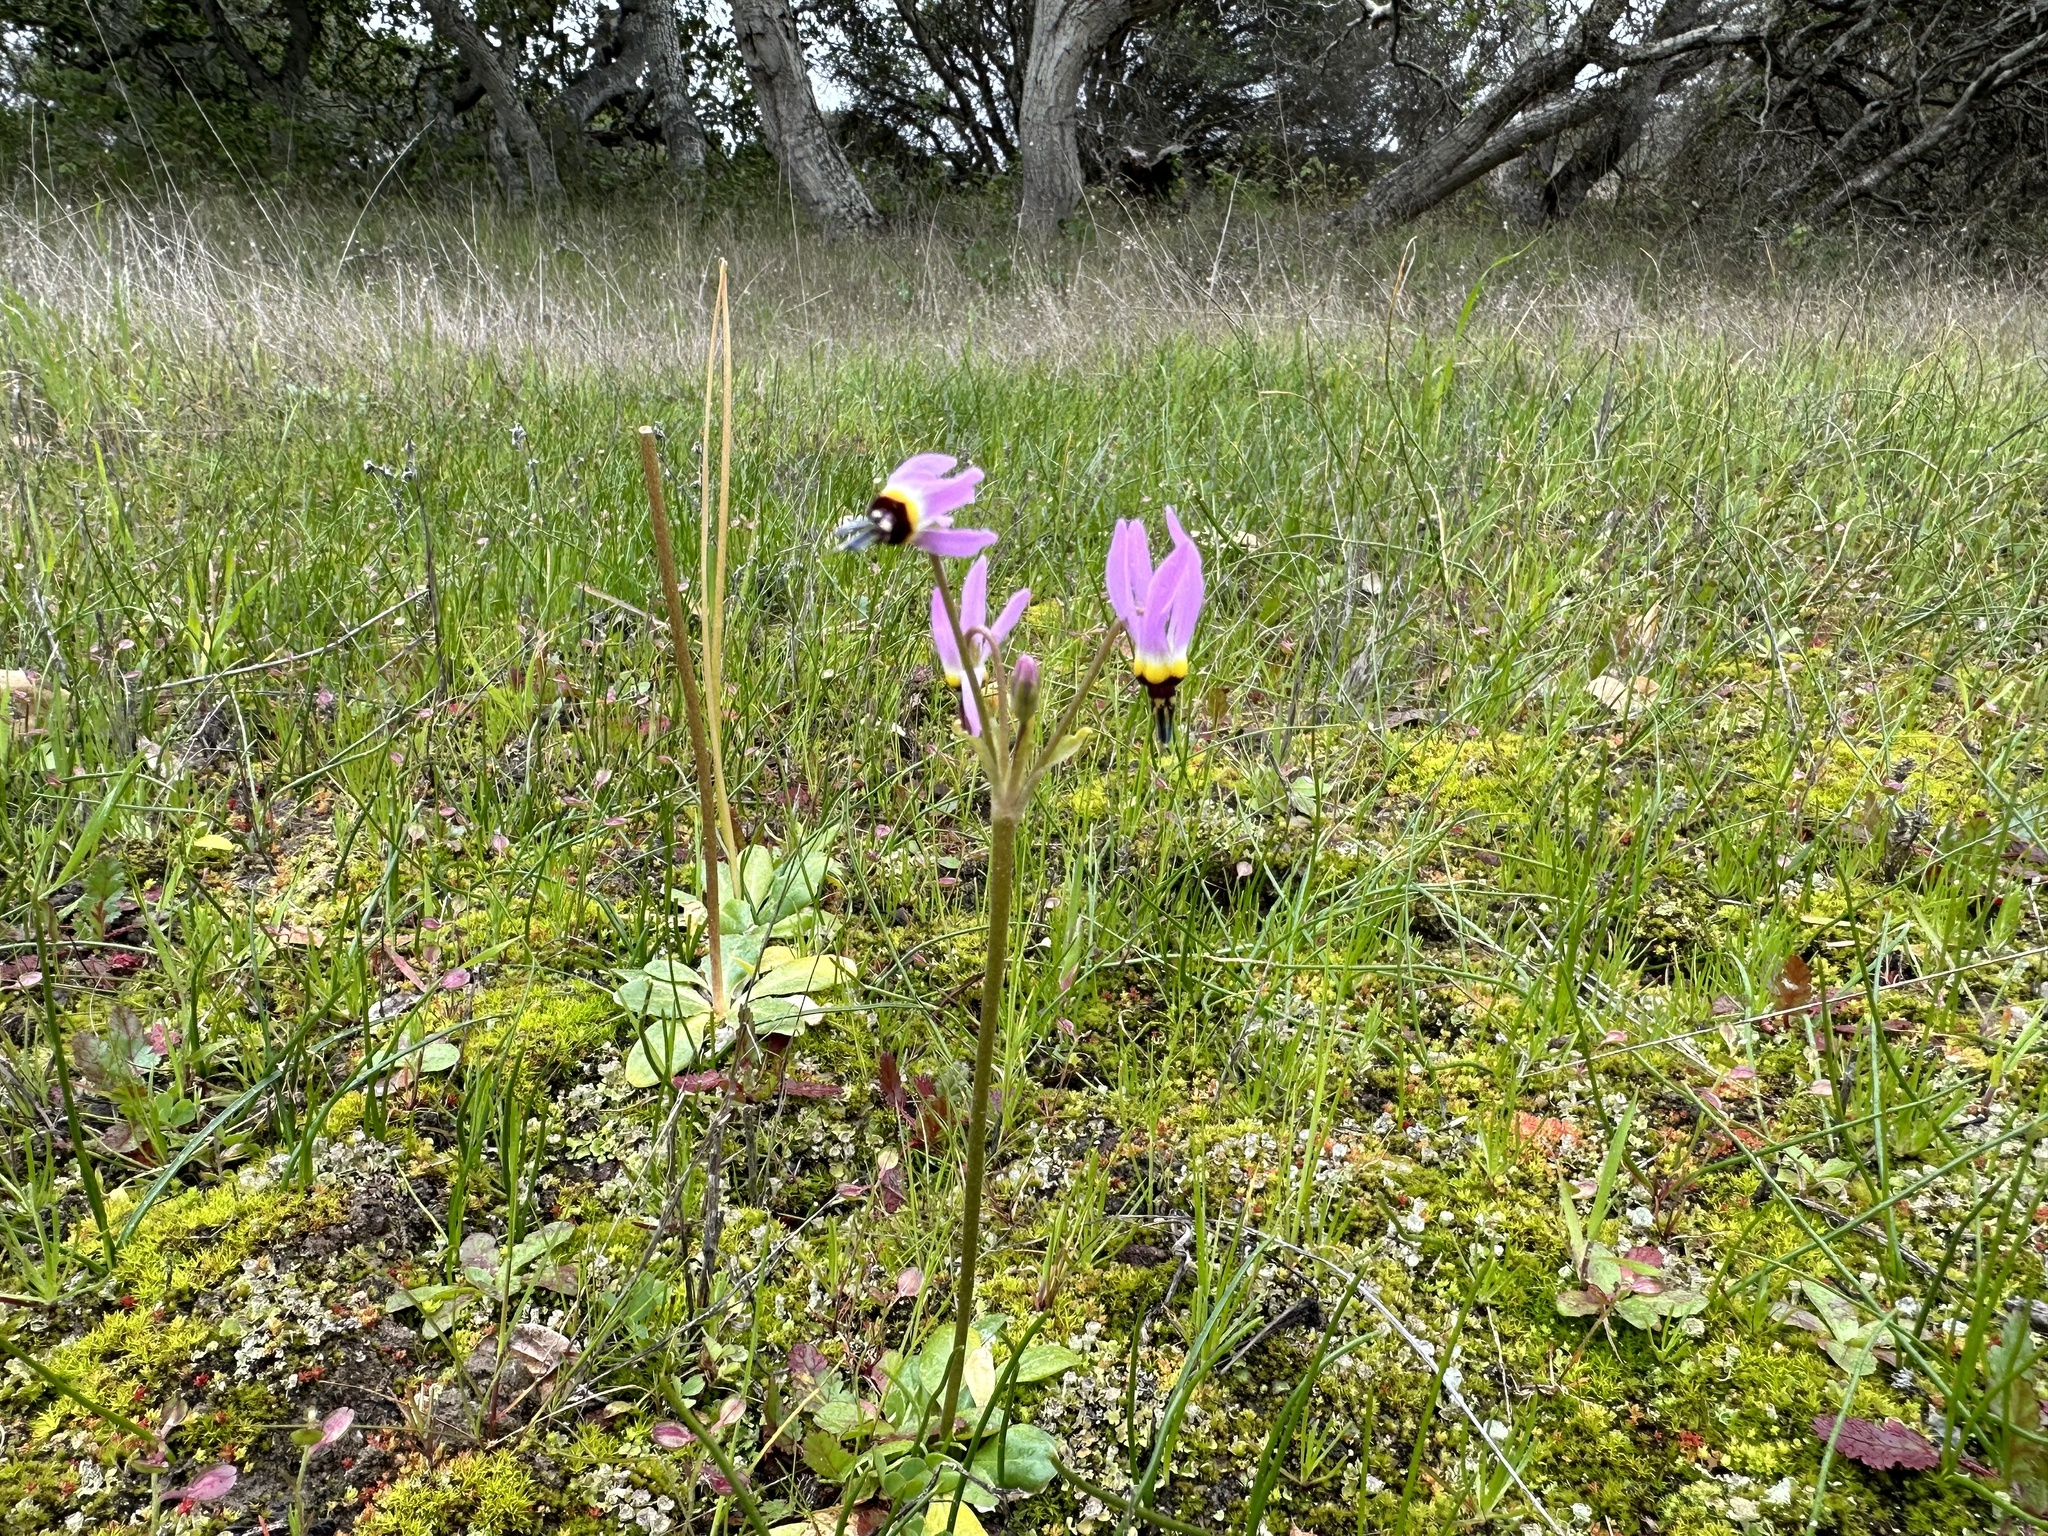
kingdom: Plantae
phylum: Tracheophyta
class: Magnoliopsida
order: Ericales
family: Primulaceae
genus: Dodecatheon
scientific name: Dodecatheon clevelandii
